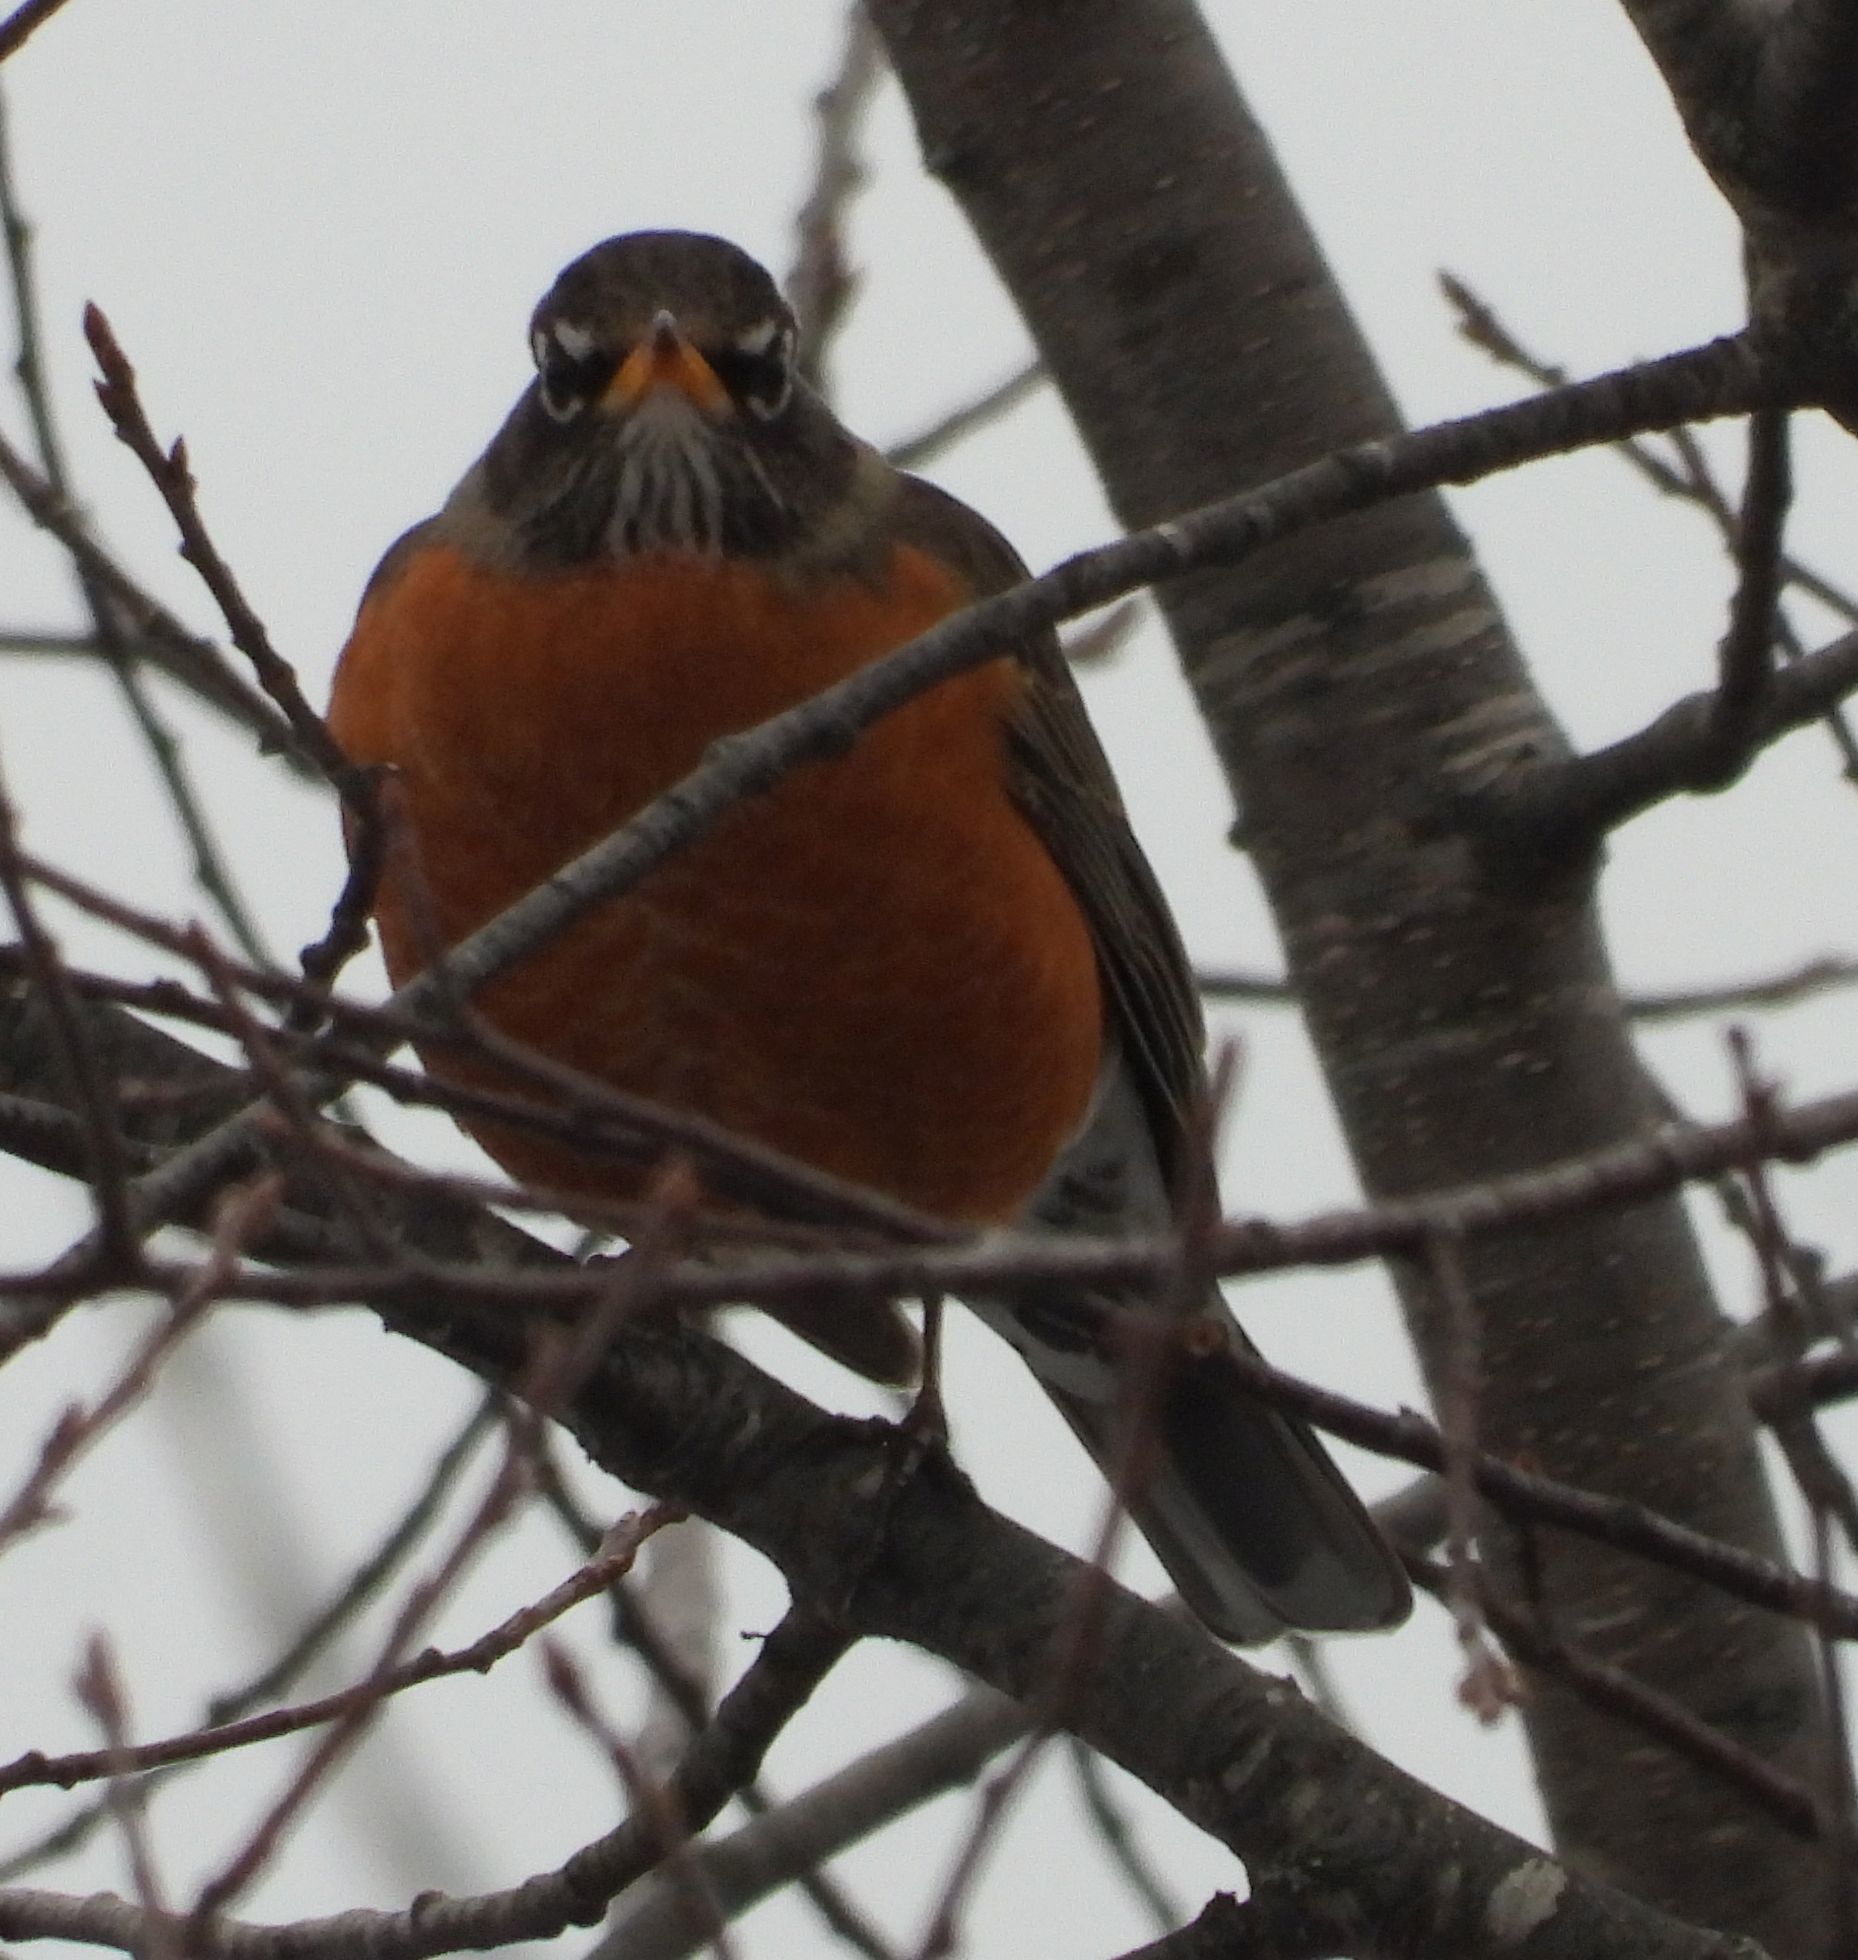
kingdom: Animalia
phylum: Chordata
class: Aves
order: Passeriformes
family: Turdidae
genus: Turdus
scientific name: Turdus migratorius
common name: American robin
